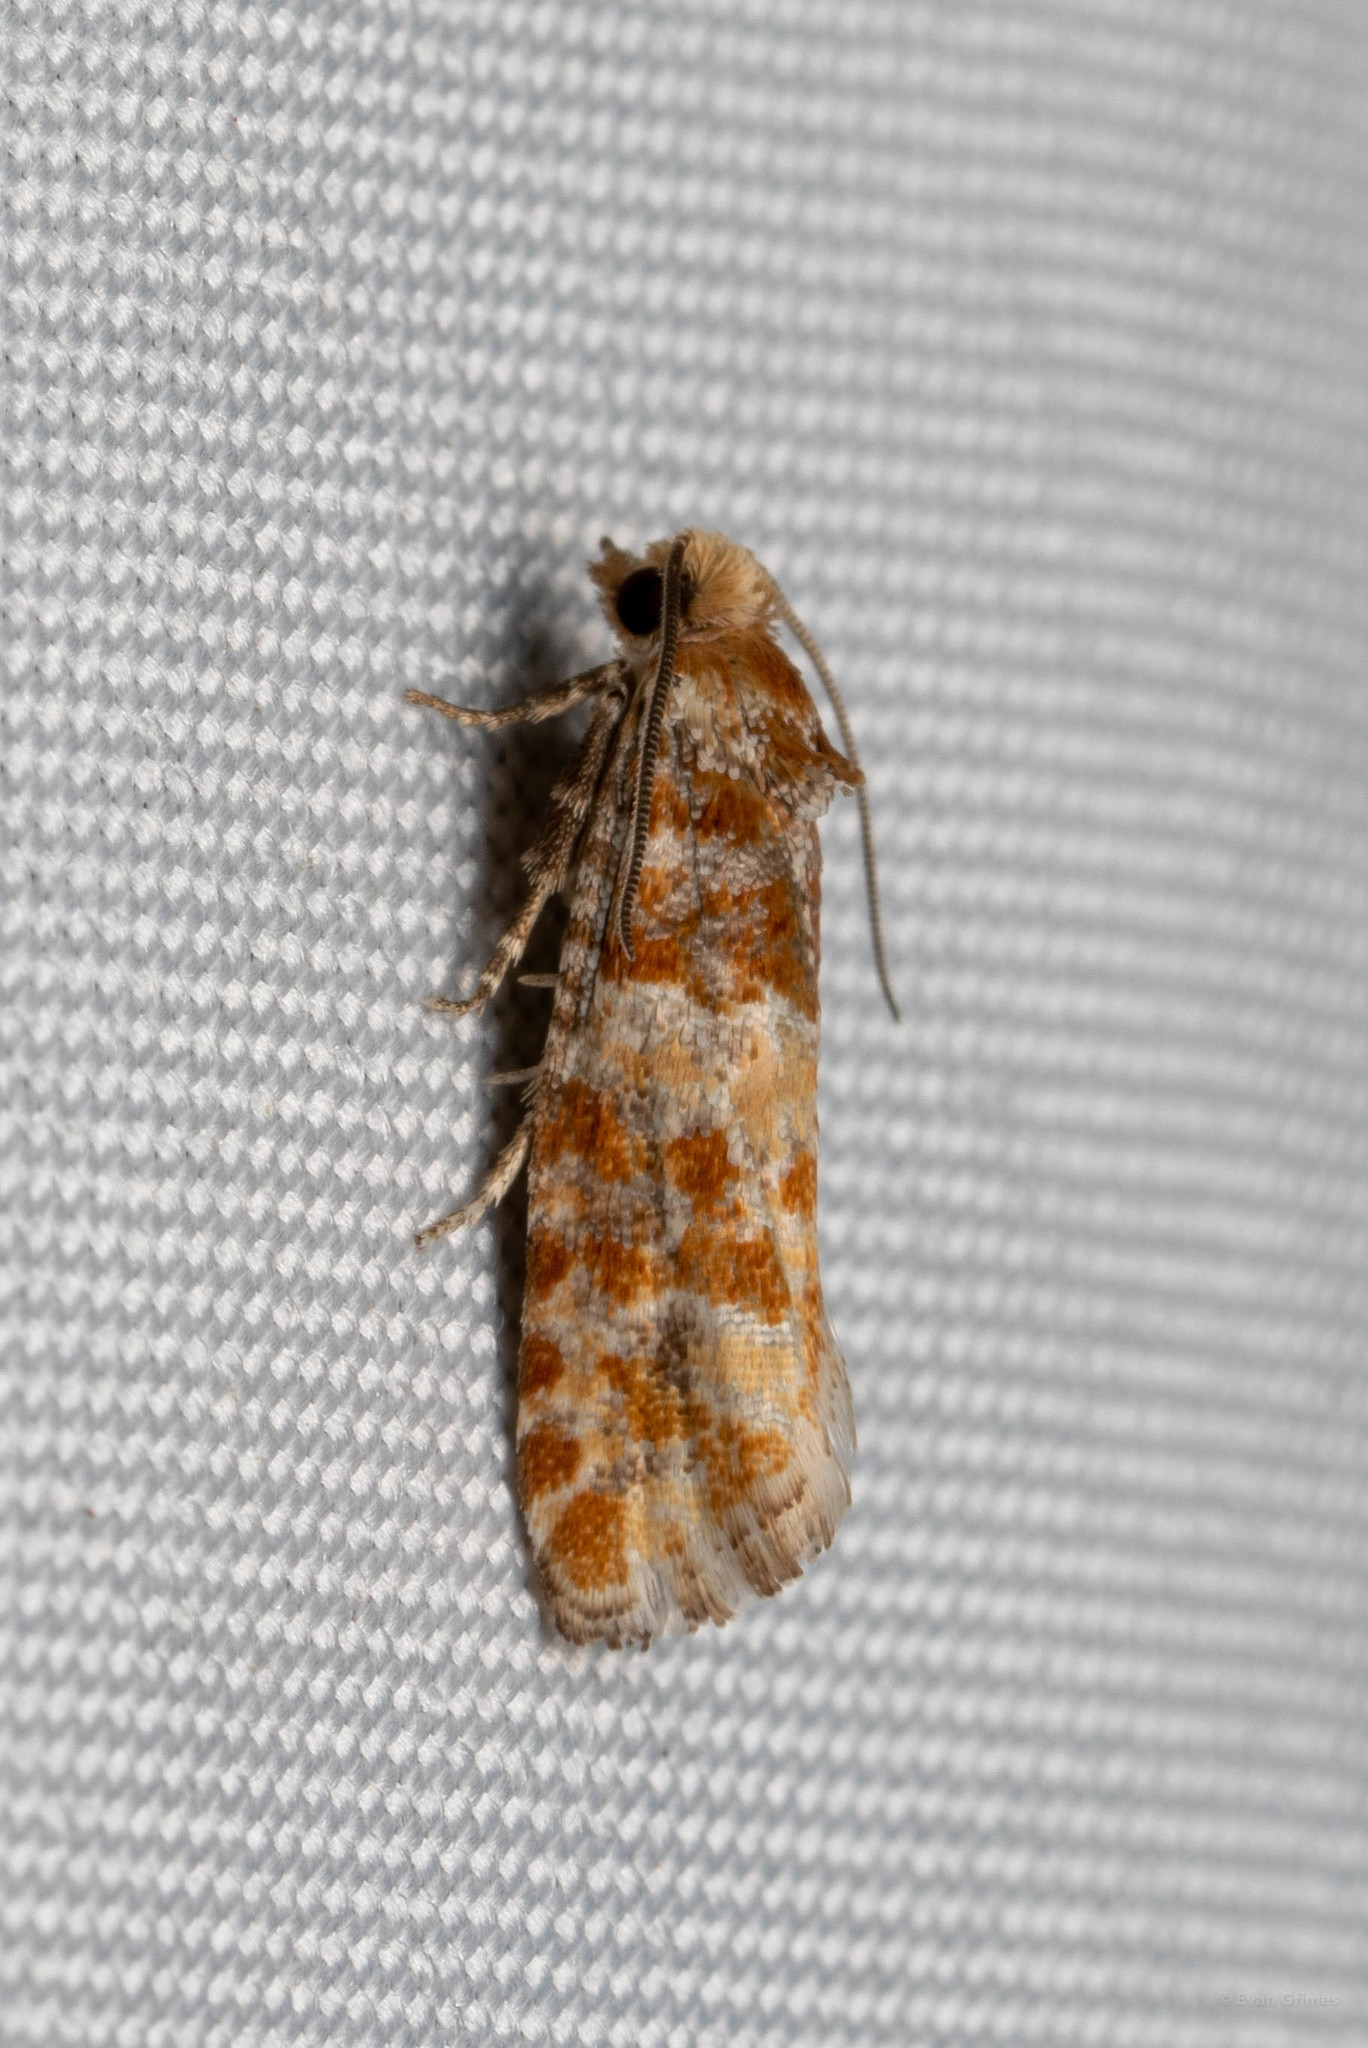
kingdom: Animalia
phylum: Arthropoda
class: Insecta
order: Lepidoptera
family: Tortricidae
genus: Eucopina
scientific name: Eucopina cocana
